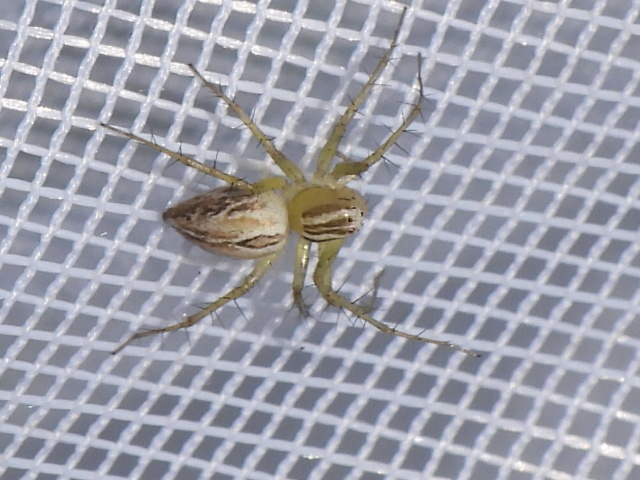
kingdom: Animalia
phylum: Arthropoda
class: Arachnida
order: Araneae
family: Oxyopidae
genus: Oxyopes
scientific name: Oxyopes salticus
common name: Lynx spiders
